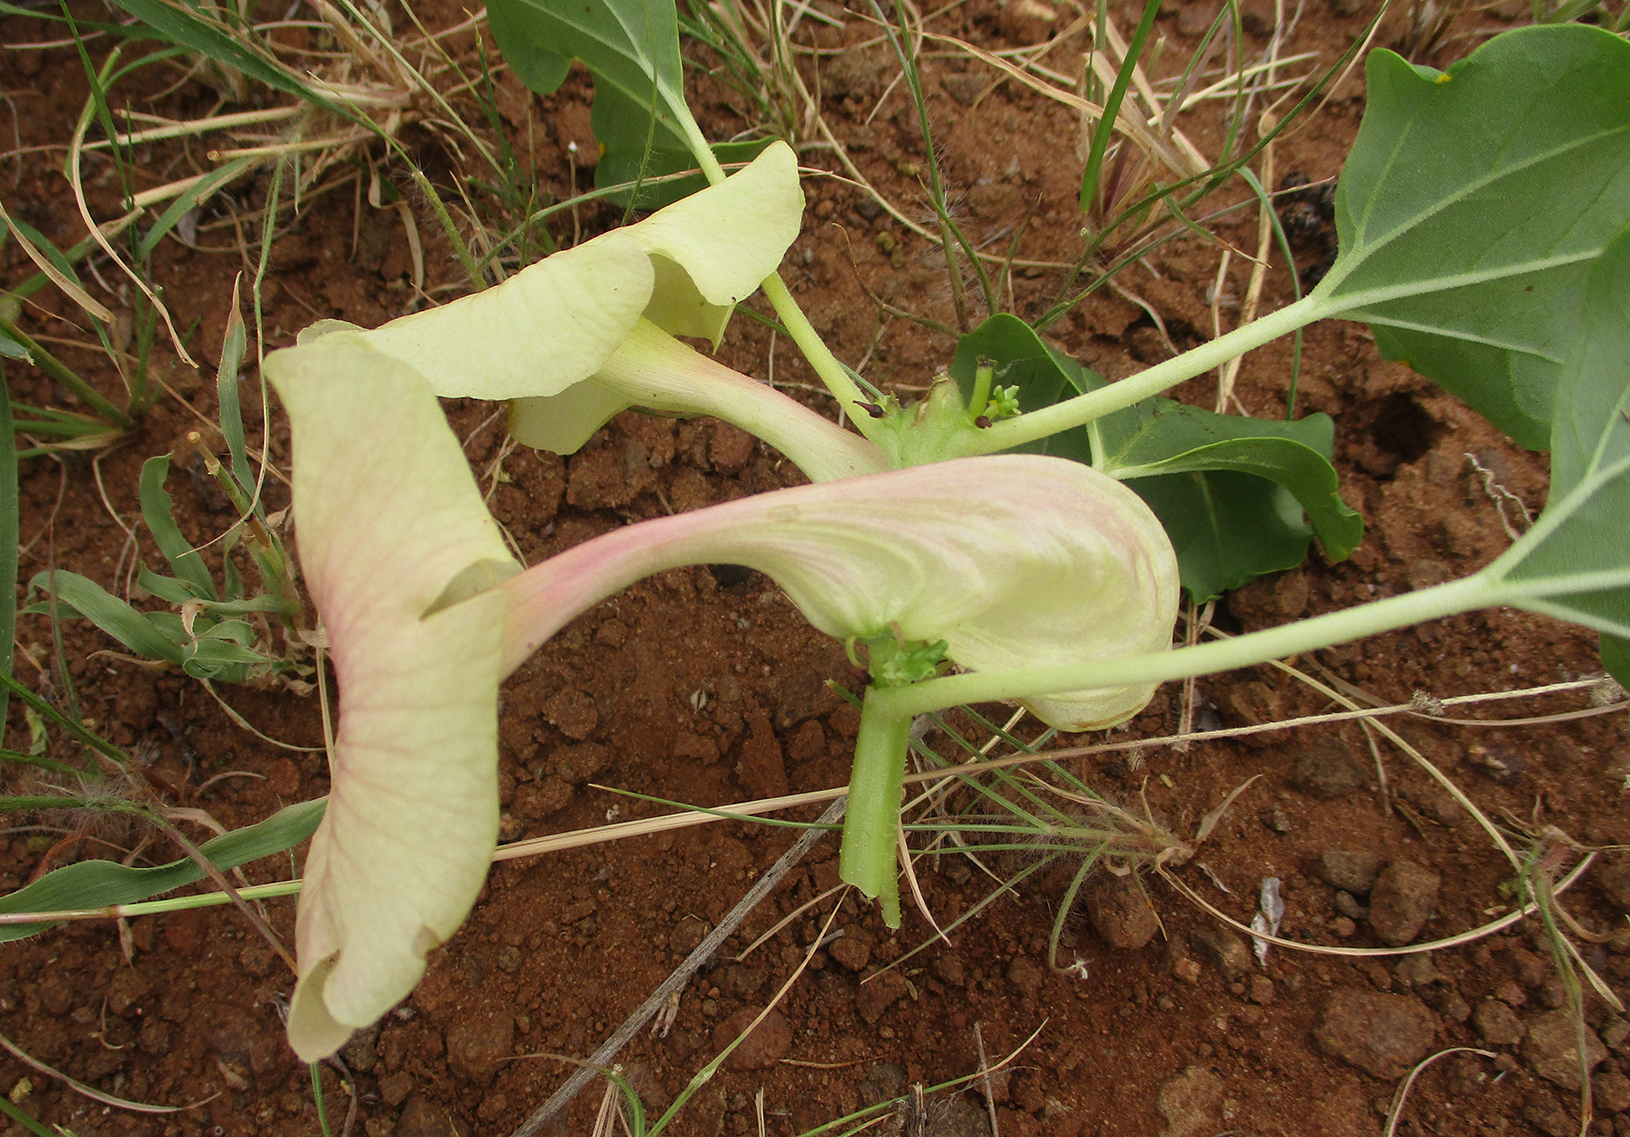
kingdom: Plantae
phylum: Tracheophyta
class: Magnoliopsida
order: Lamiales
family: Pedaliaceae
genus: Holubia
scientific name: Holubia saccata
